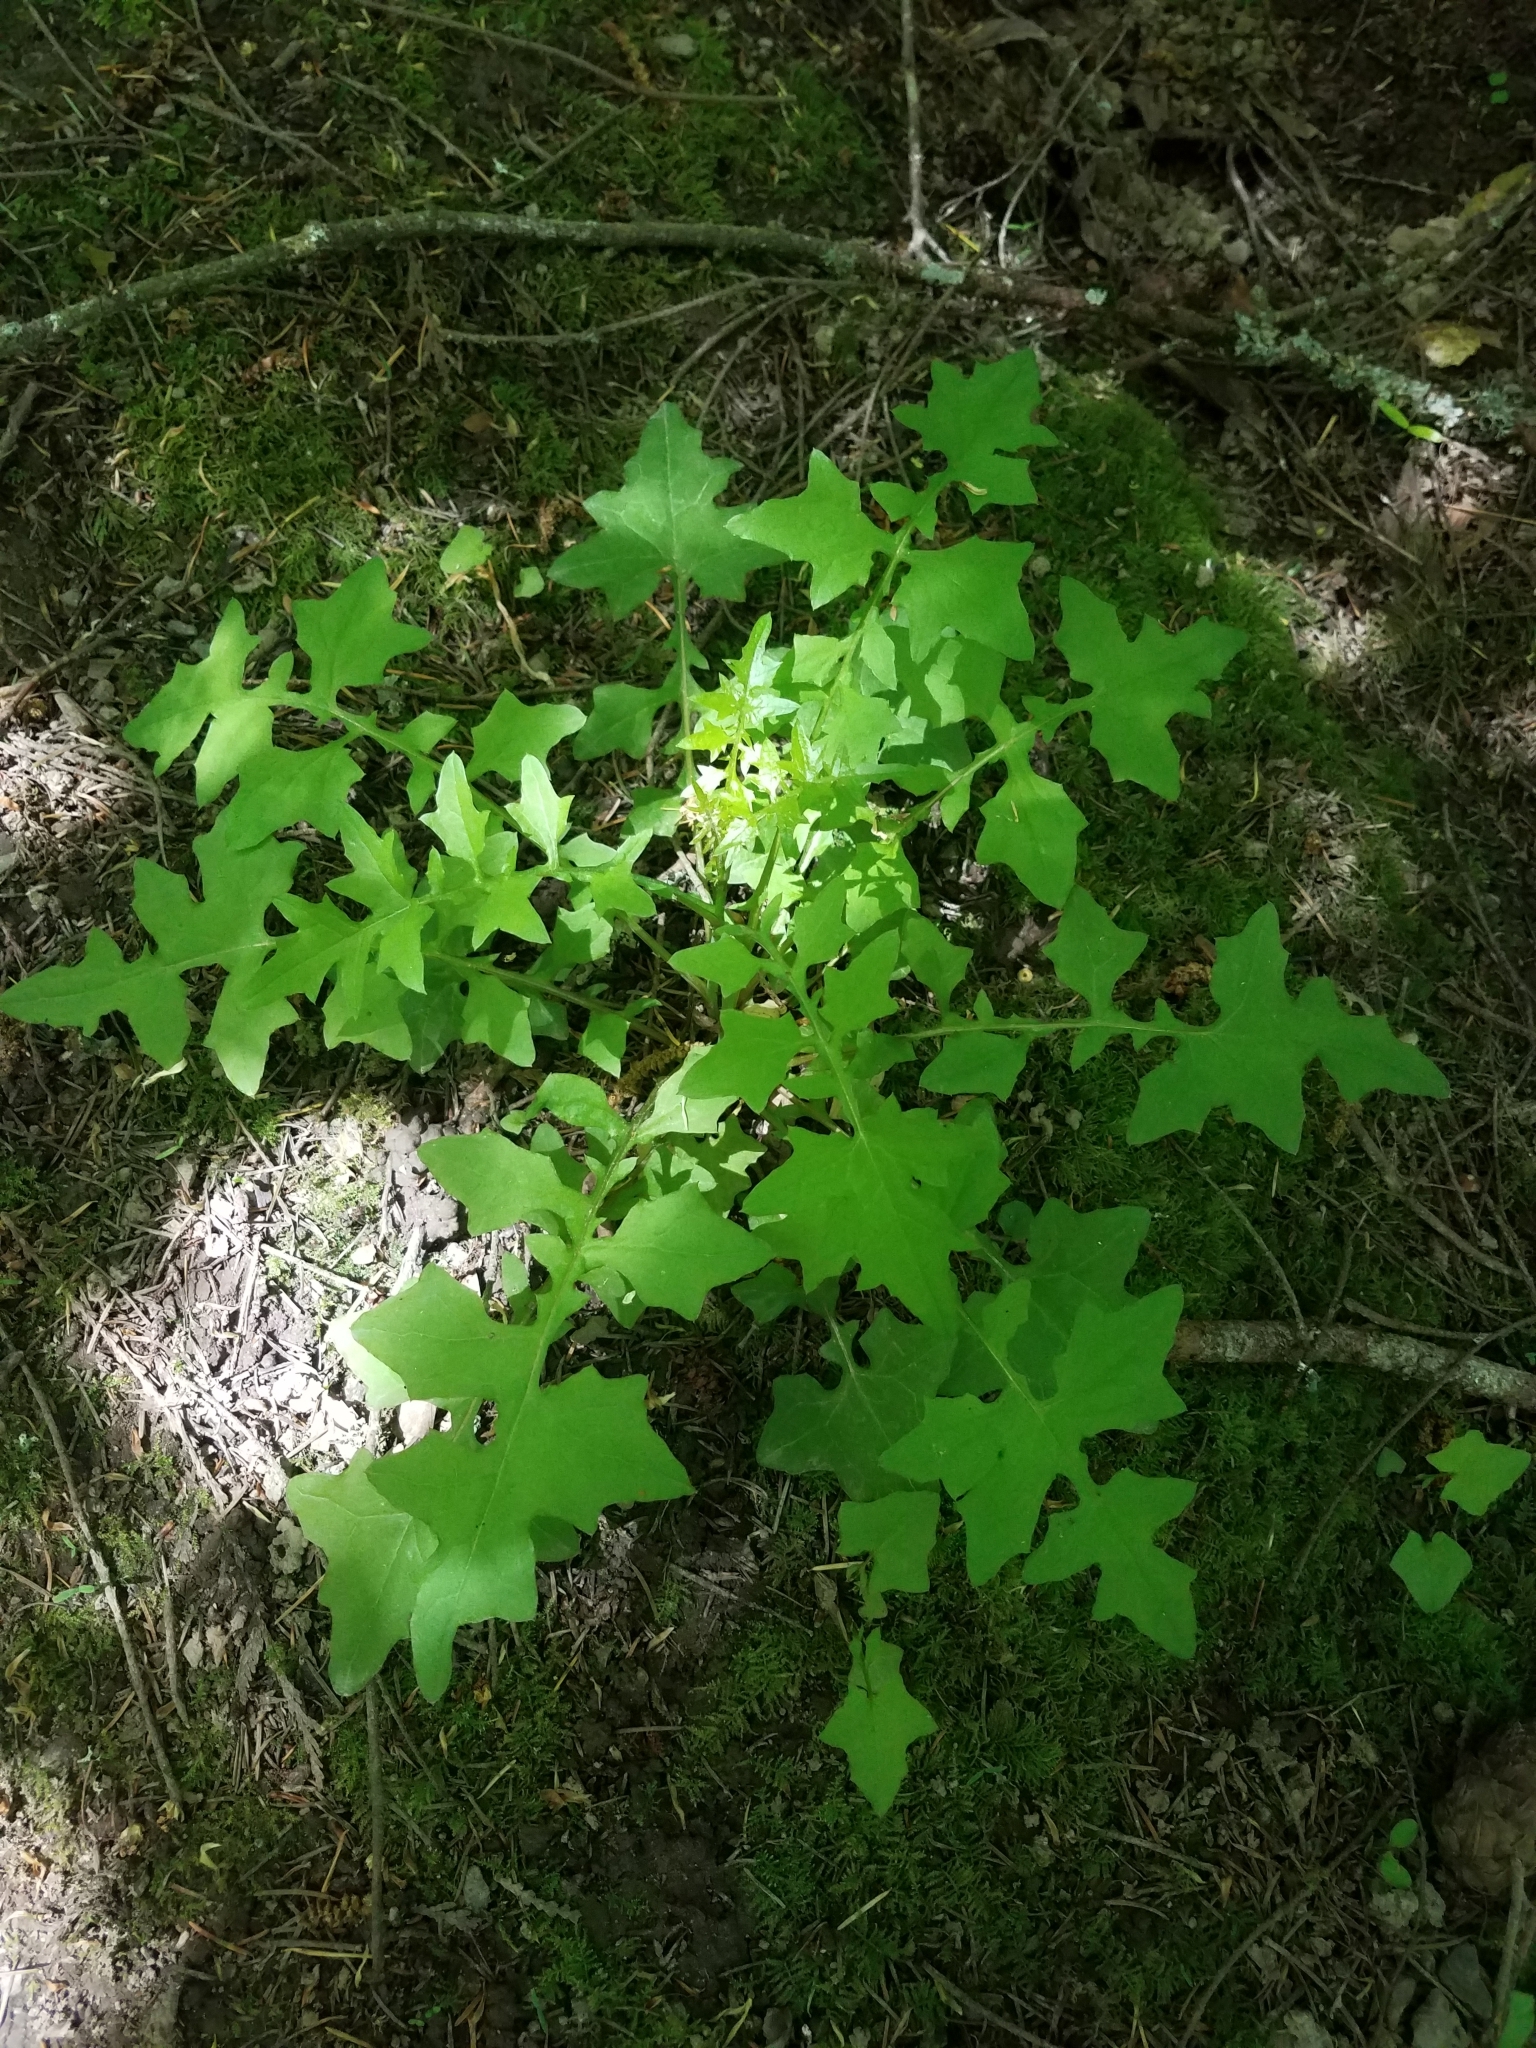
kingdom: Plantae
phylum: Tracheophyta
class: Magnoliopsida
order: Asterales
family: Asteraceae
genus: Mycelis
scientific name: Mycelis muralis
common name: Wall lettuce
